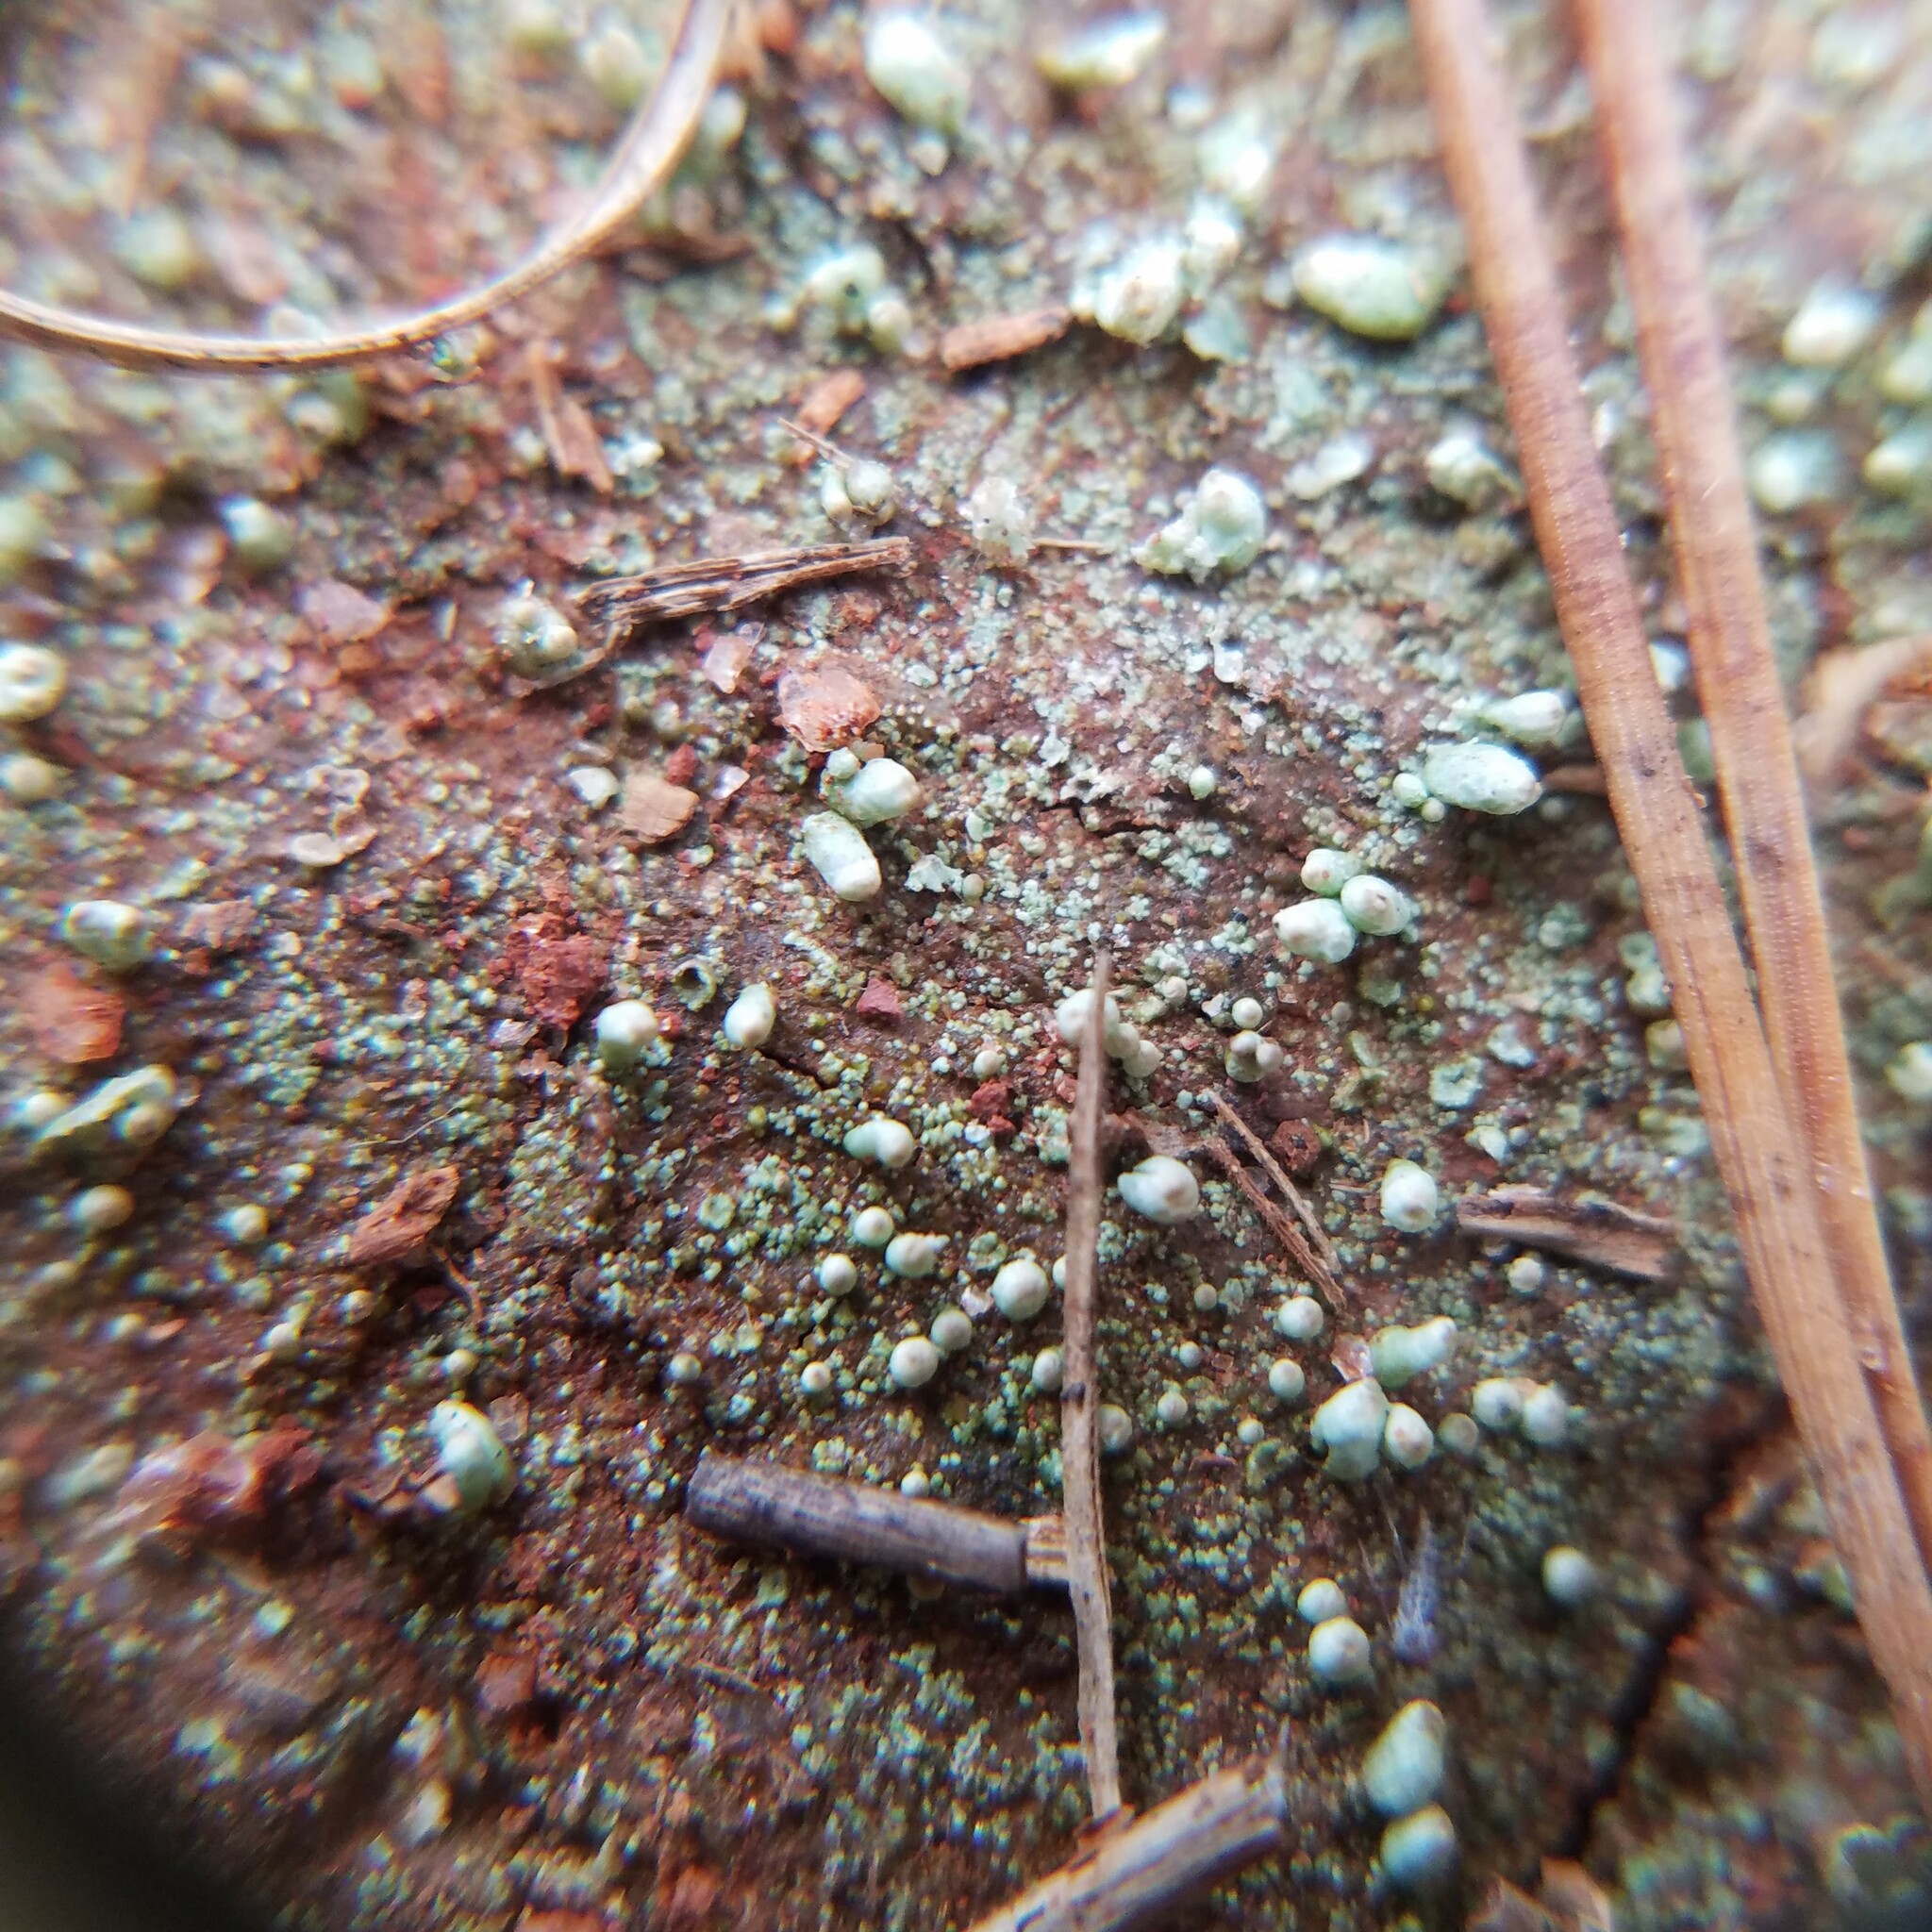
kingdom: Fungi
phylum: Ascomycota
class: Lecanoromycetes
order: Lecanorales
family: Cladoniaceae
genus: Pycnothelia
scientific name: Pycnothelia papillaria
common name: Nipple lichen
